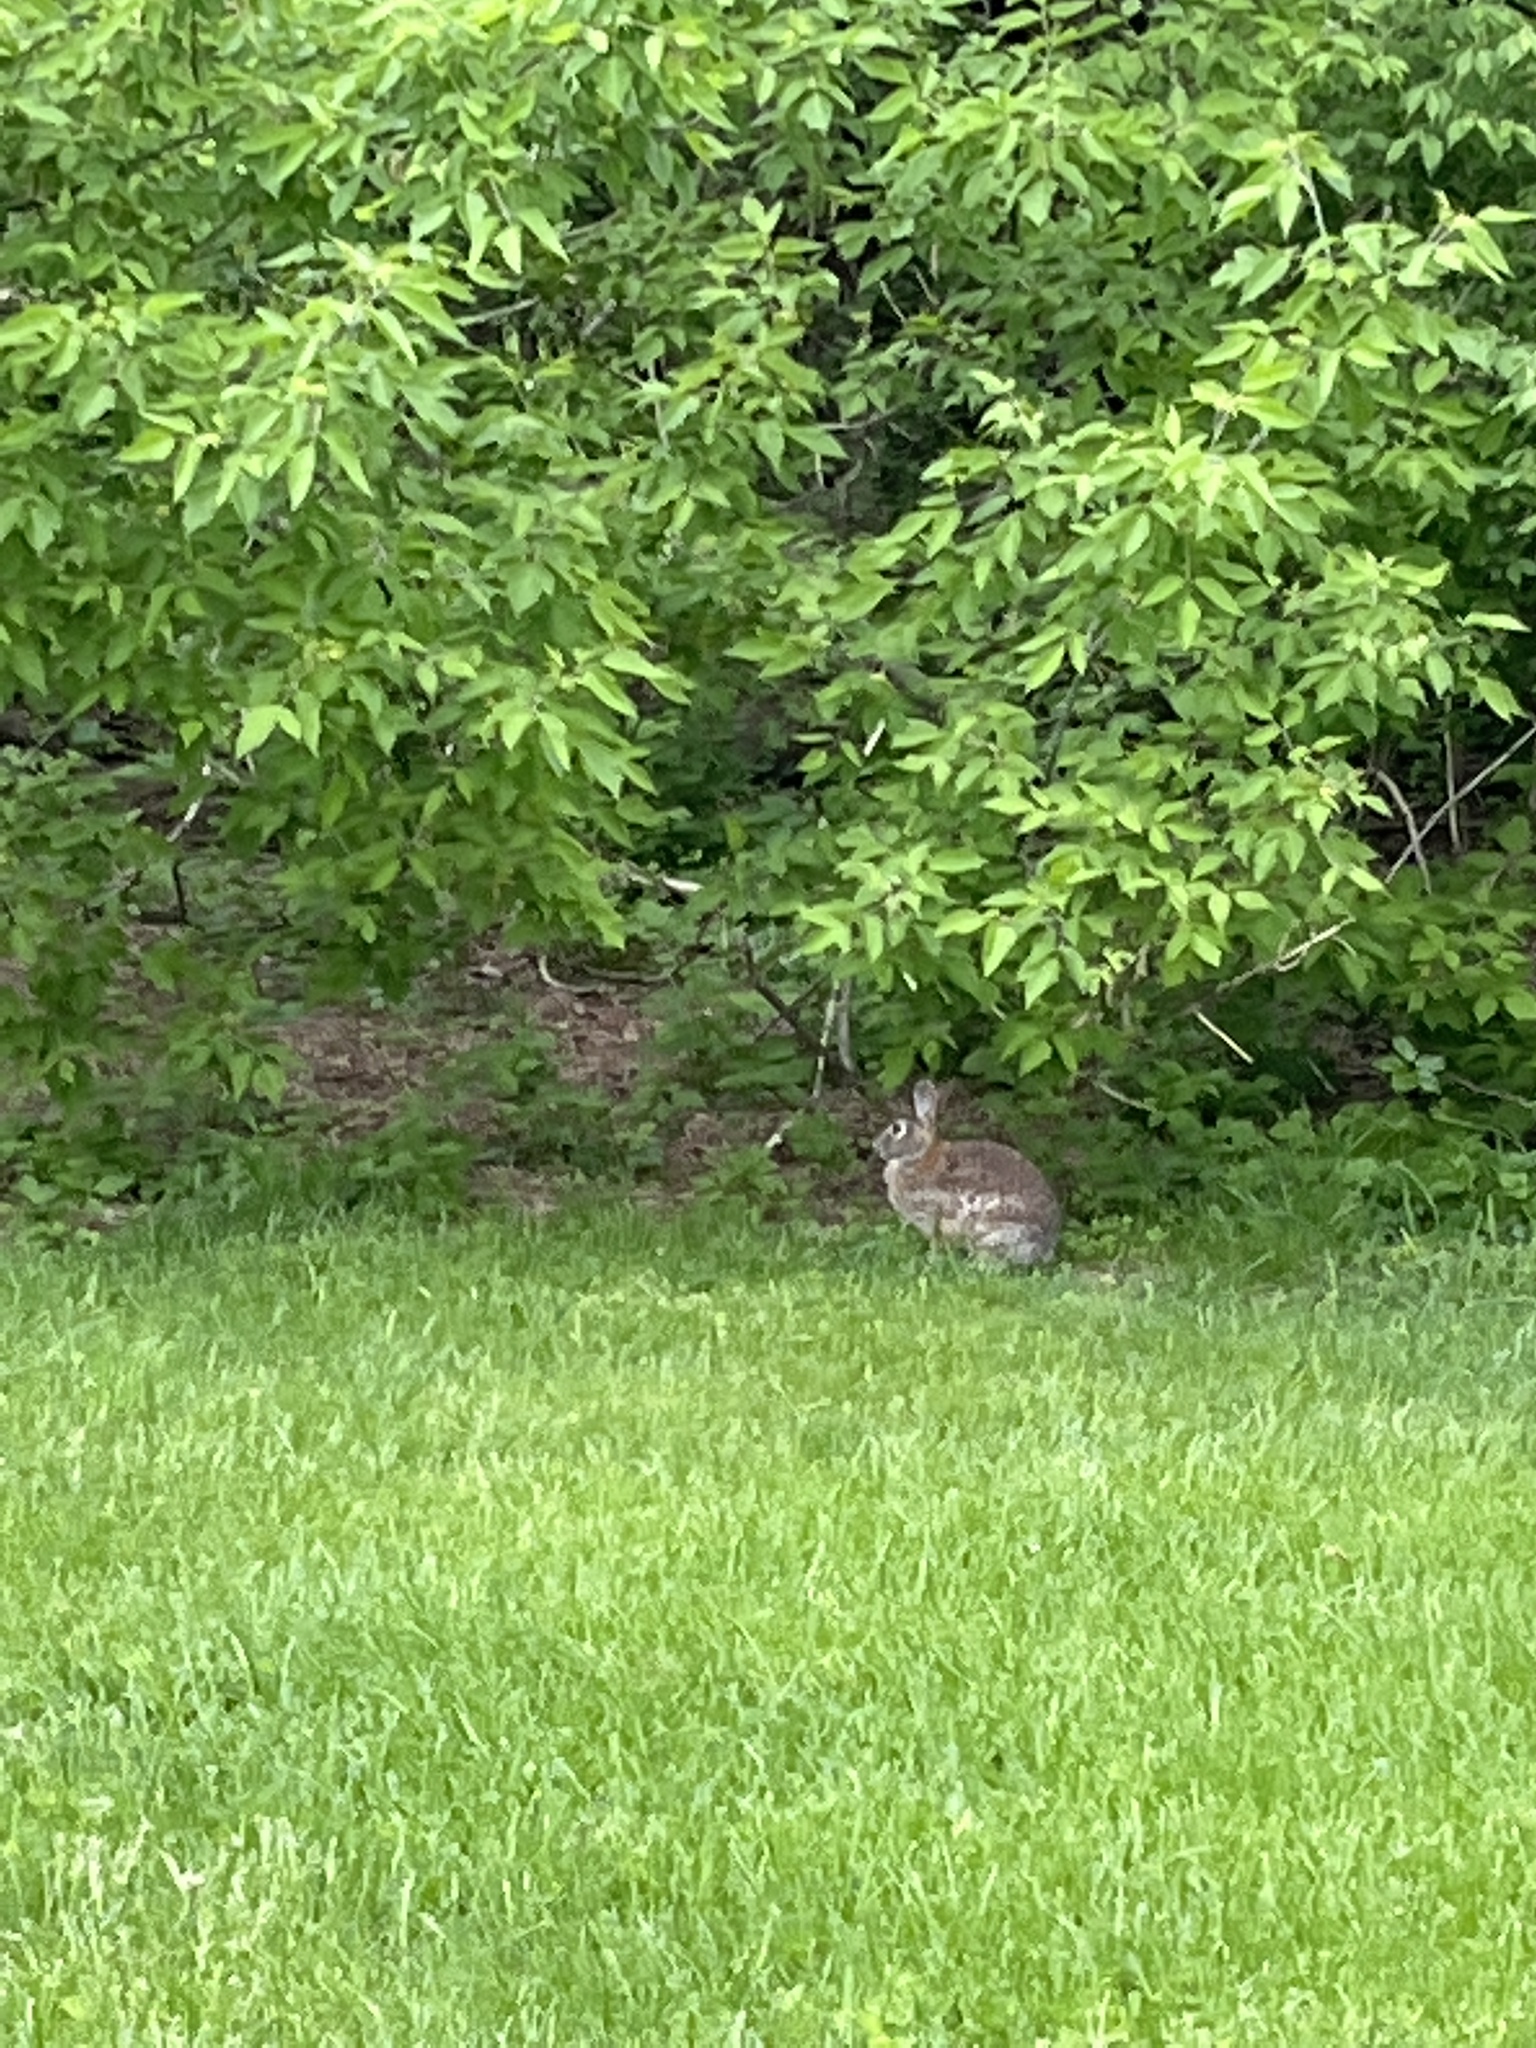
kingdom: Animalia
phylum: Chordata
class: Mammalia
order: Lagomorpha
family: Leporidae
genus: Sylvilagus
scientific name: Sylvilagus floridanus
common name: Eastern cottontail
